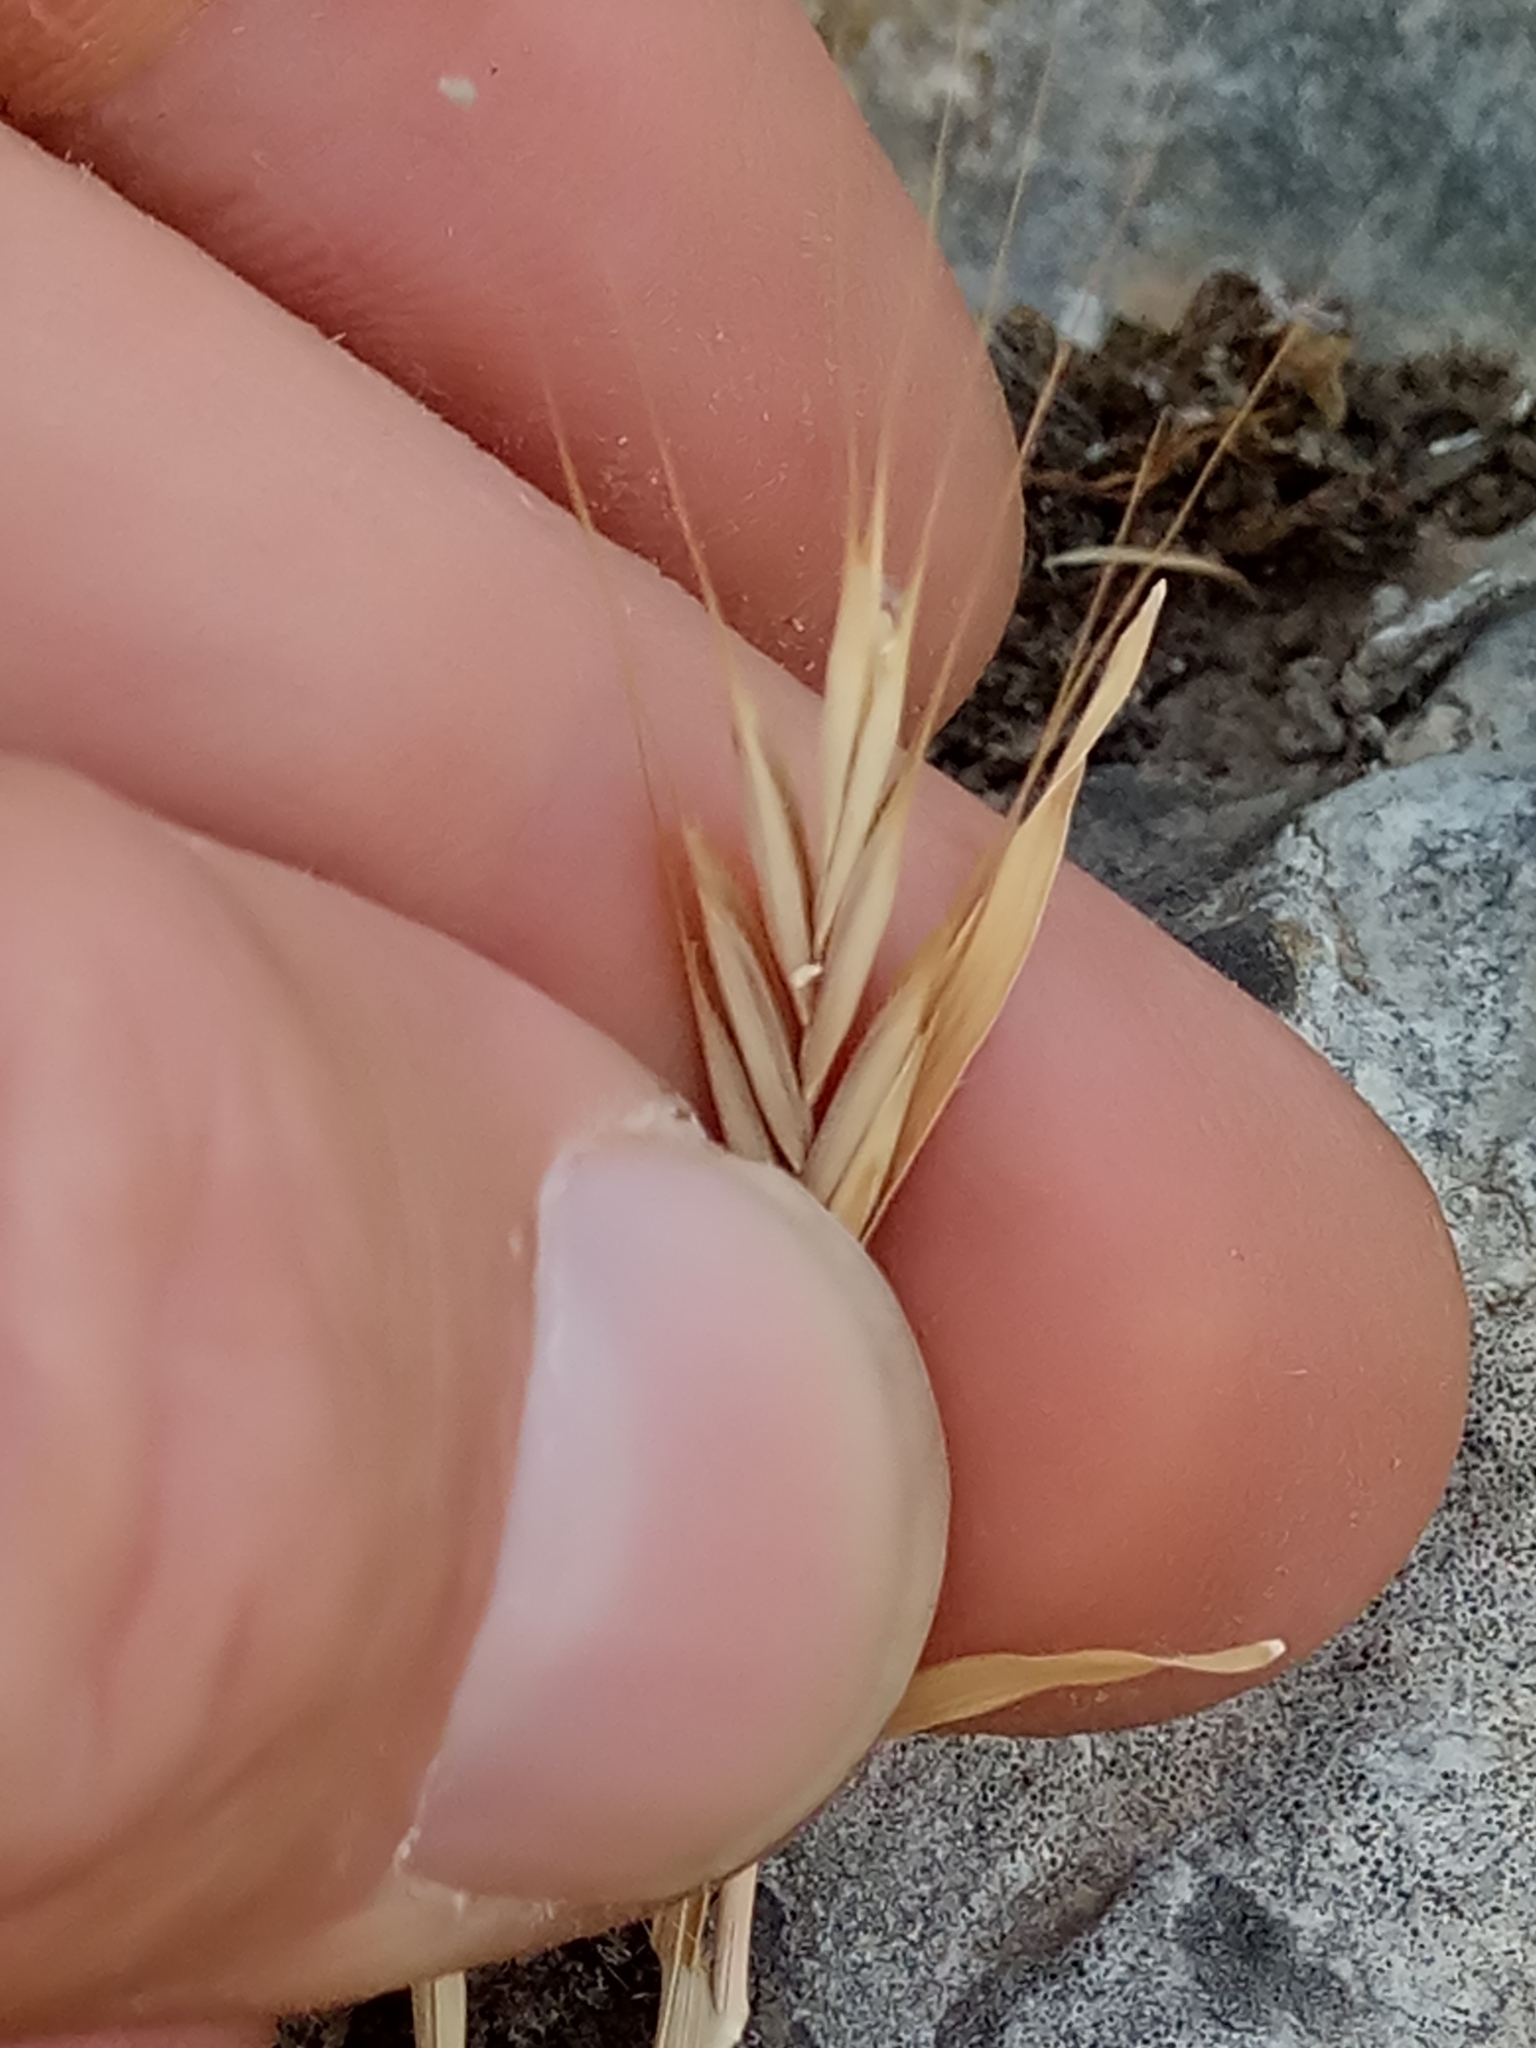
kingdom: Plantae
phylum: Tracheophyta
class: Liliopsida
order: Poales
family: Poaceae
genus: Brachypodium
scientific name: Brachypodium distachyon
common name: Stiff brome
